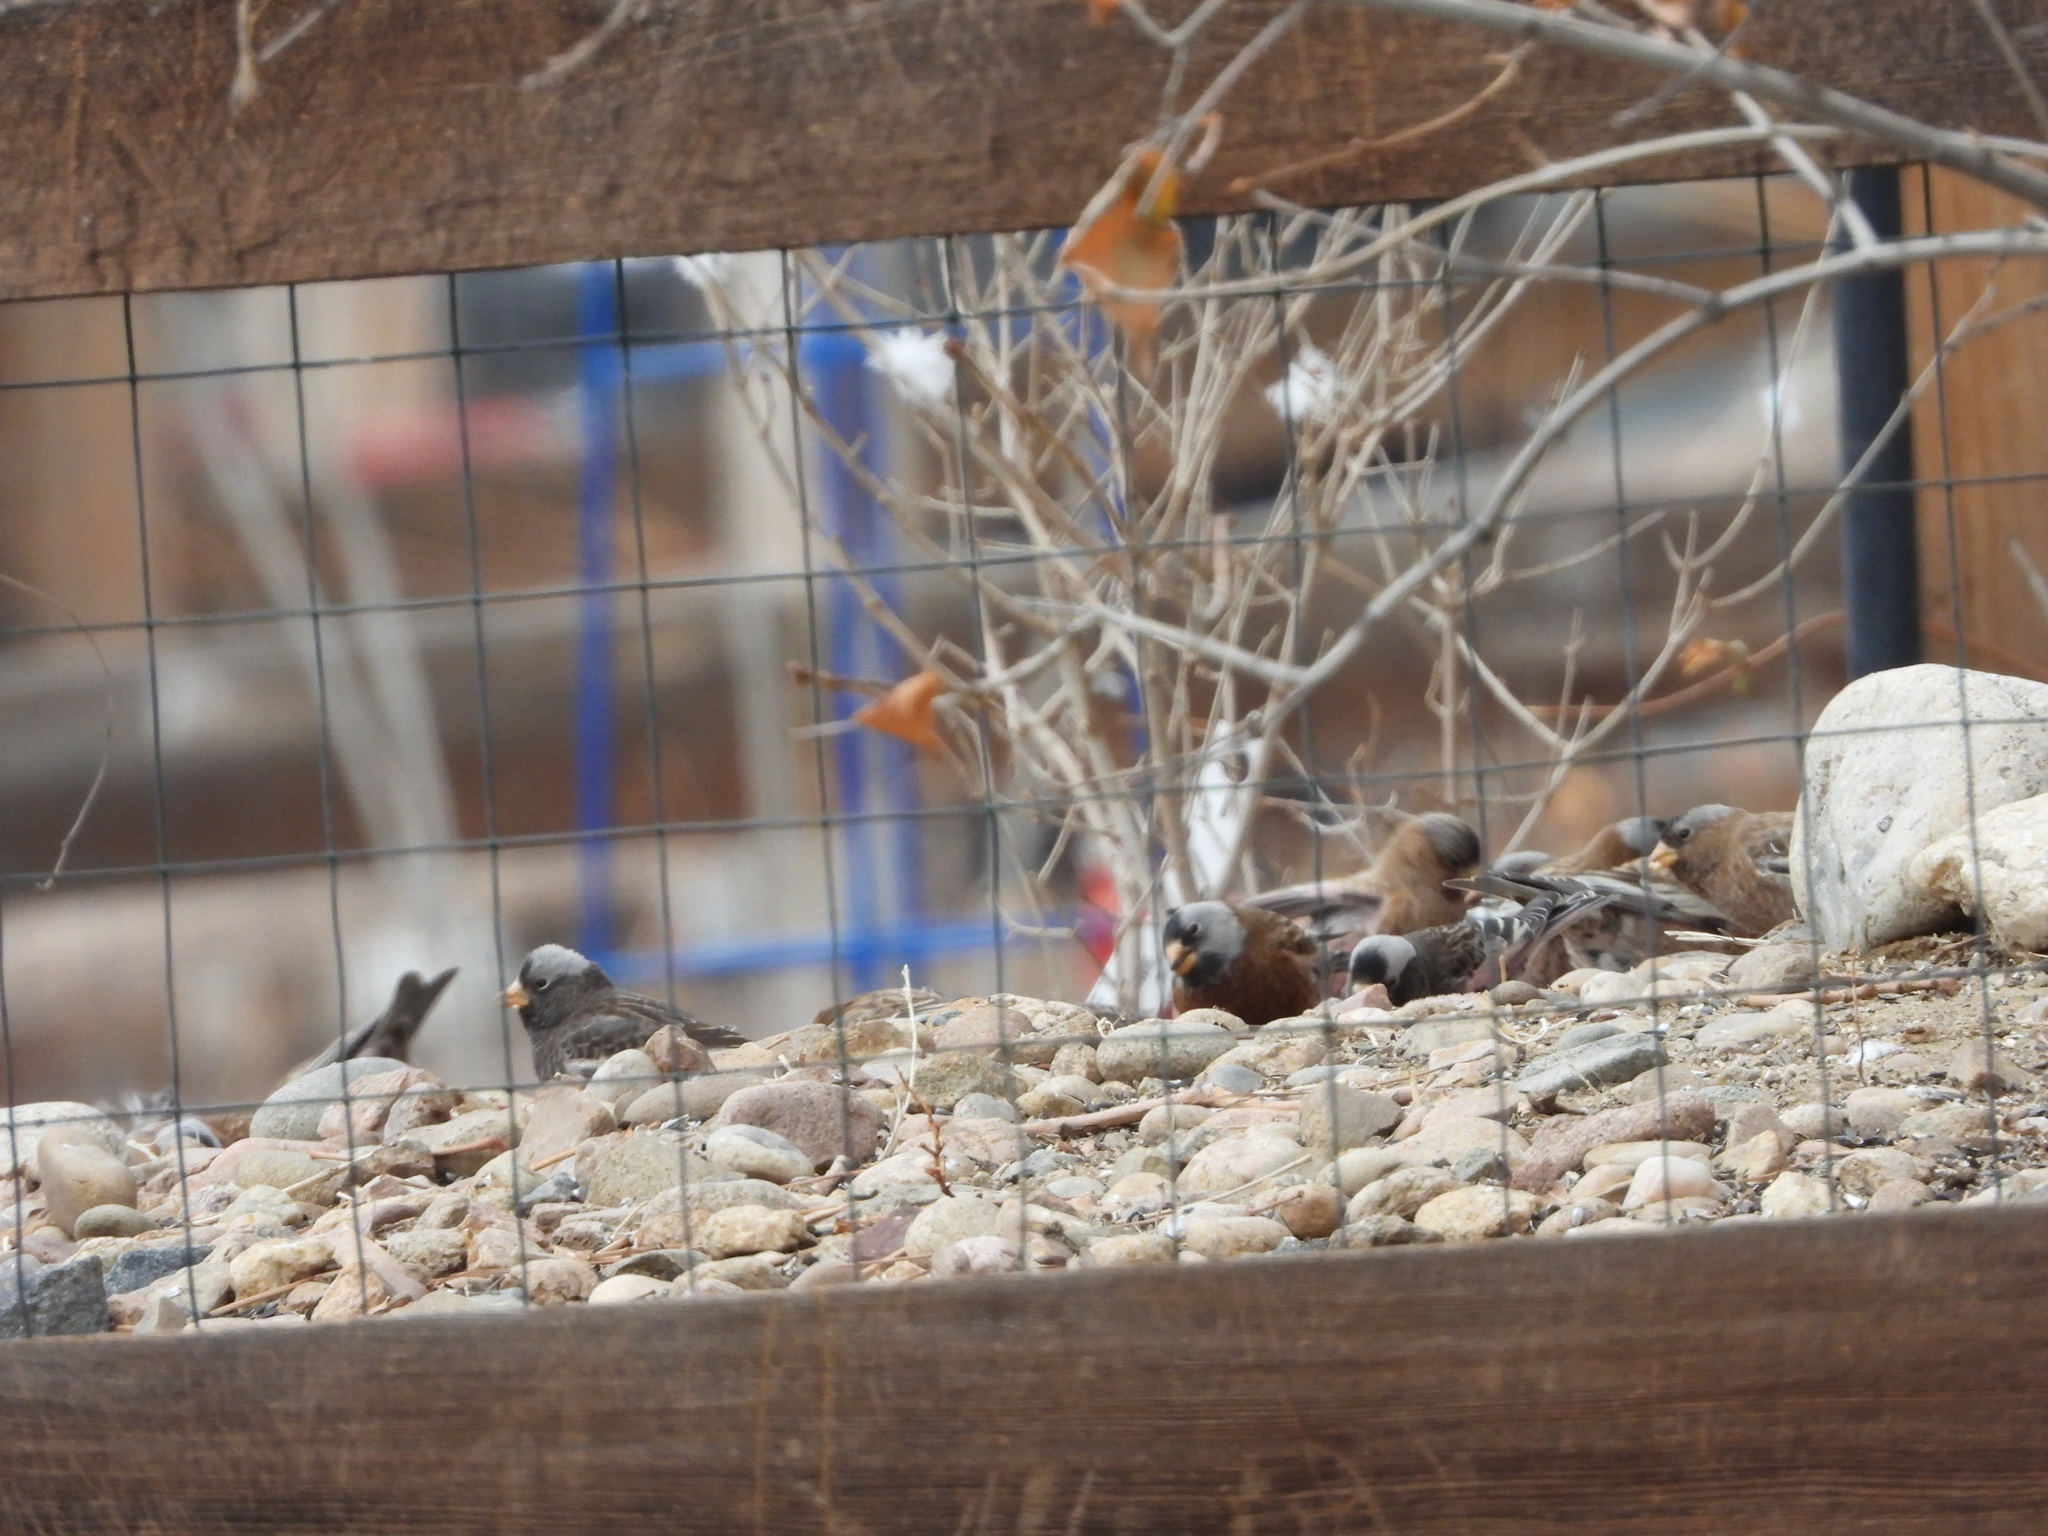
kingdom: Animalia
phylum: Chordata
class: Aves
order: Passeriformes
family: Fringillidae
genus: Leucosticte
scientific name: Leucosticte tephrocotis
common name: Gray-crowned rosy-finch
